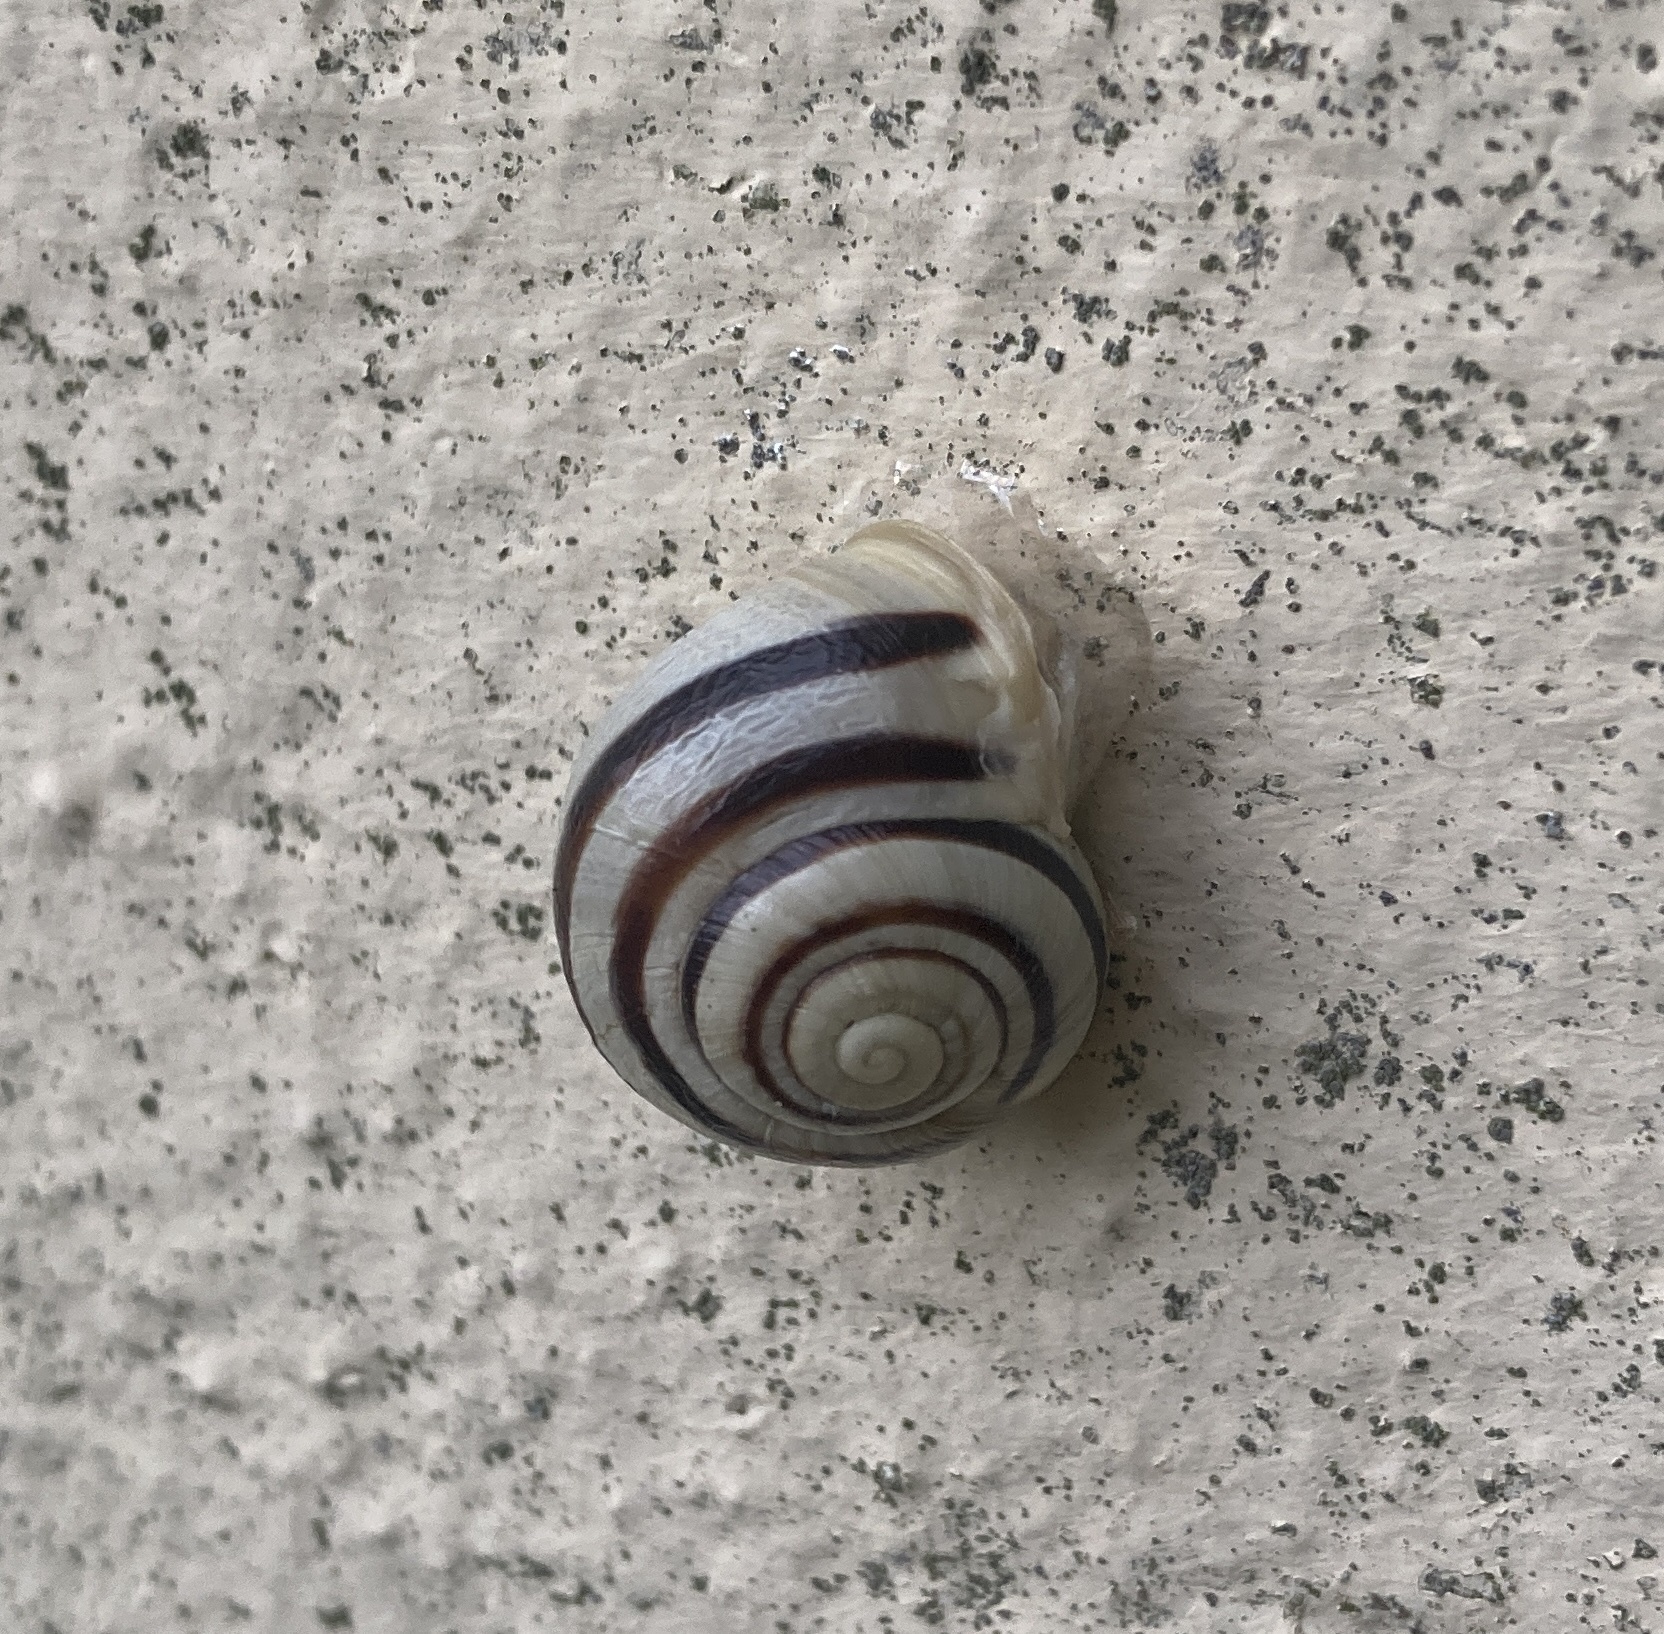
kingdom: Animalia
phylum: Mollusca
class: Gastropoda
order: Stylommatophora
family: Helicidae
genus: Cepaea
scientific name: Cepaea hortensis
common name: White-lip gardensnail
